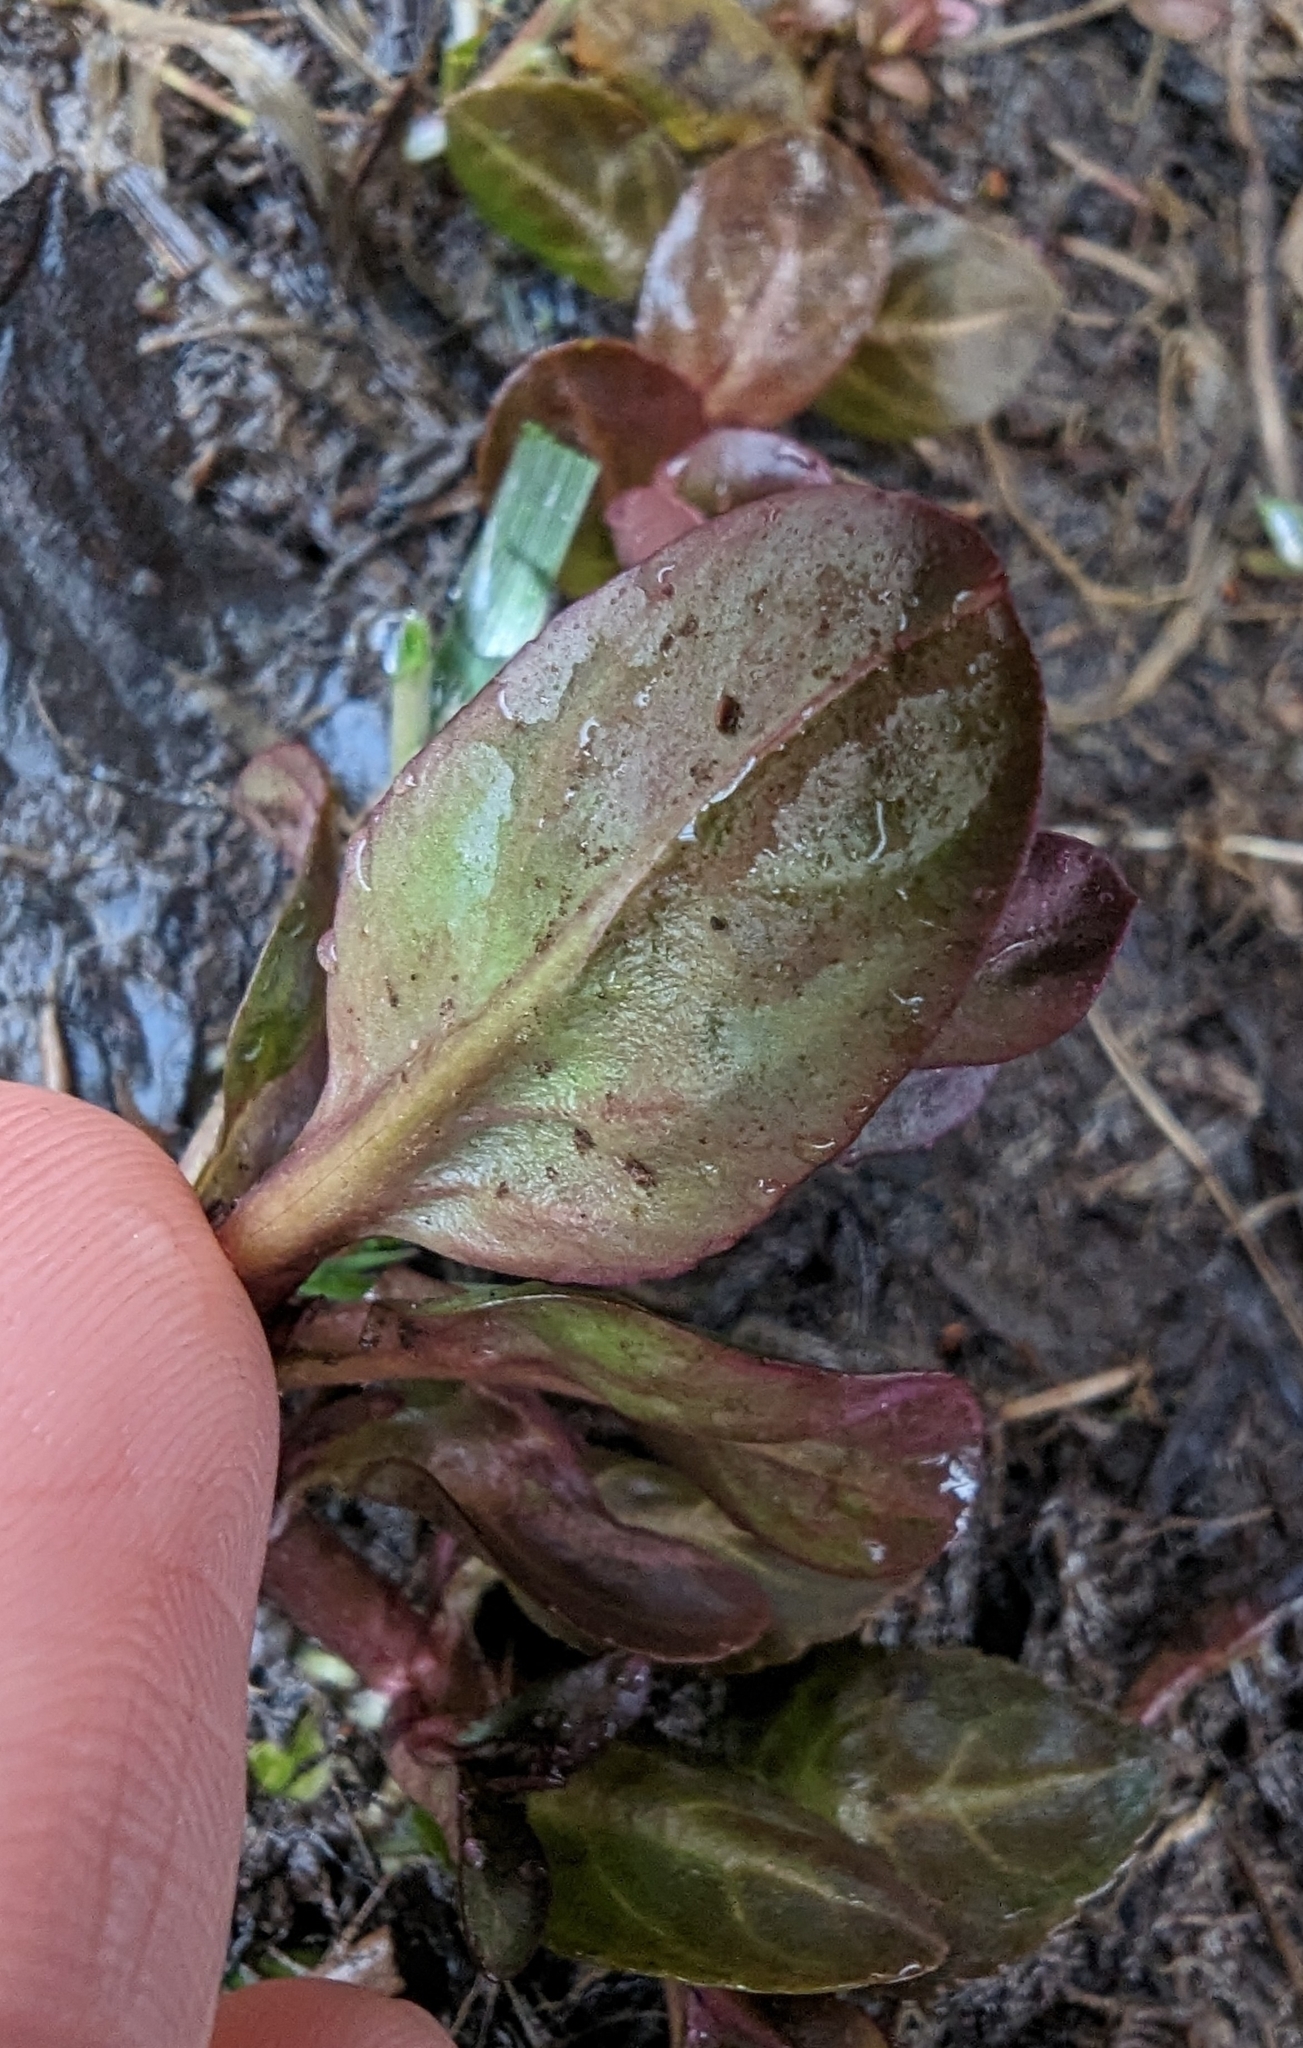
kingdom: Plantae
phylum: Tracheophyta
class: Magnoliopsida
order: Lamiales
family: Plantaginaceae
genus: Veronica
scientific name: Veronica americana
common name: American brooklime
